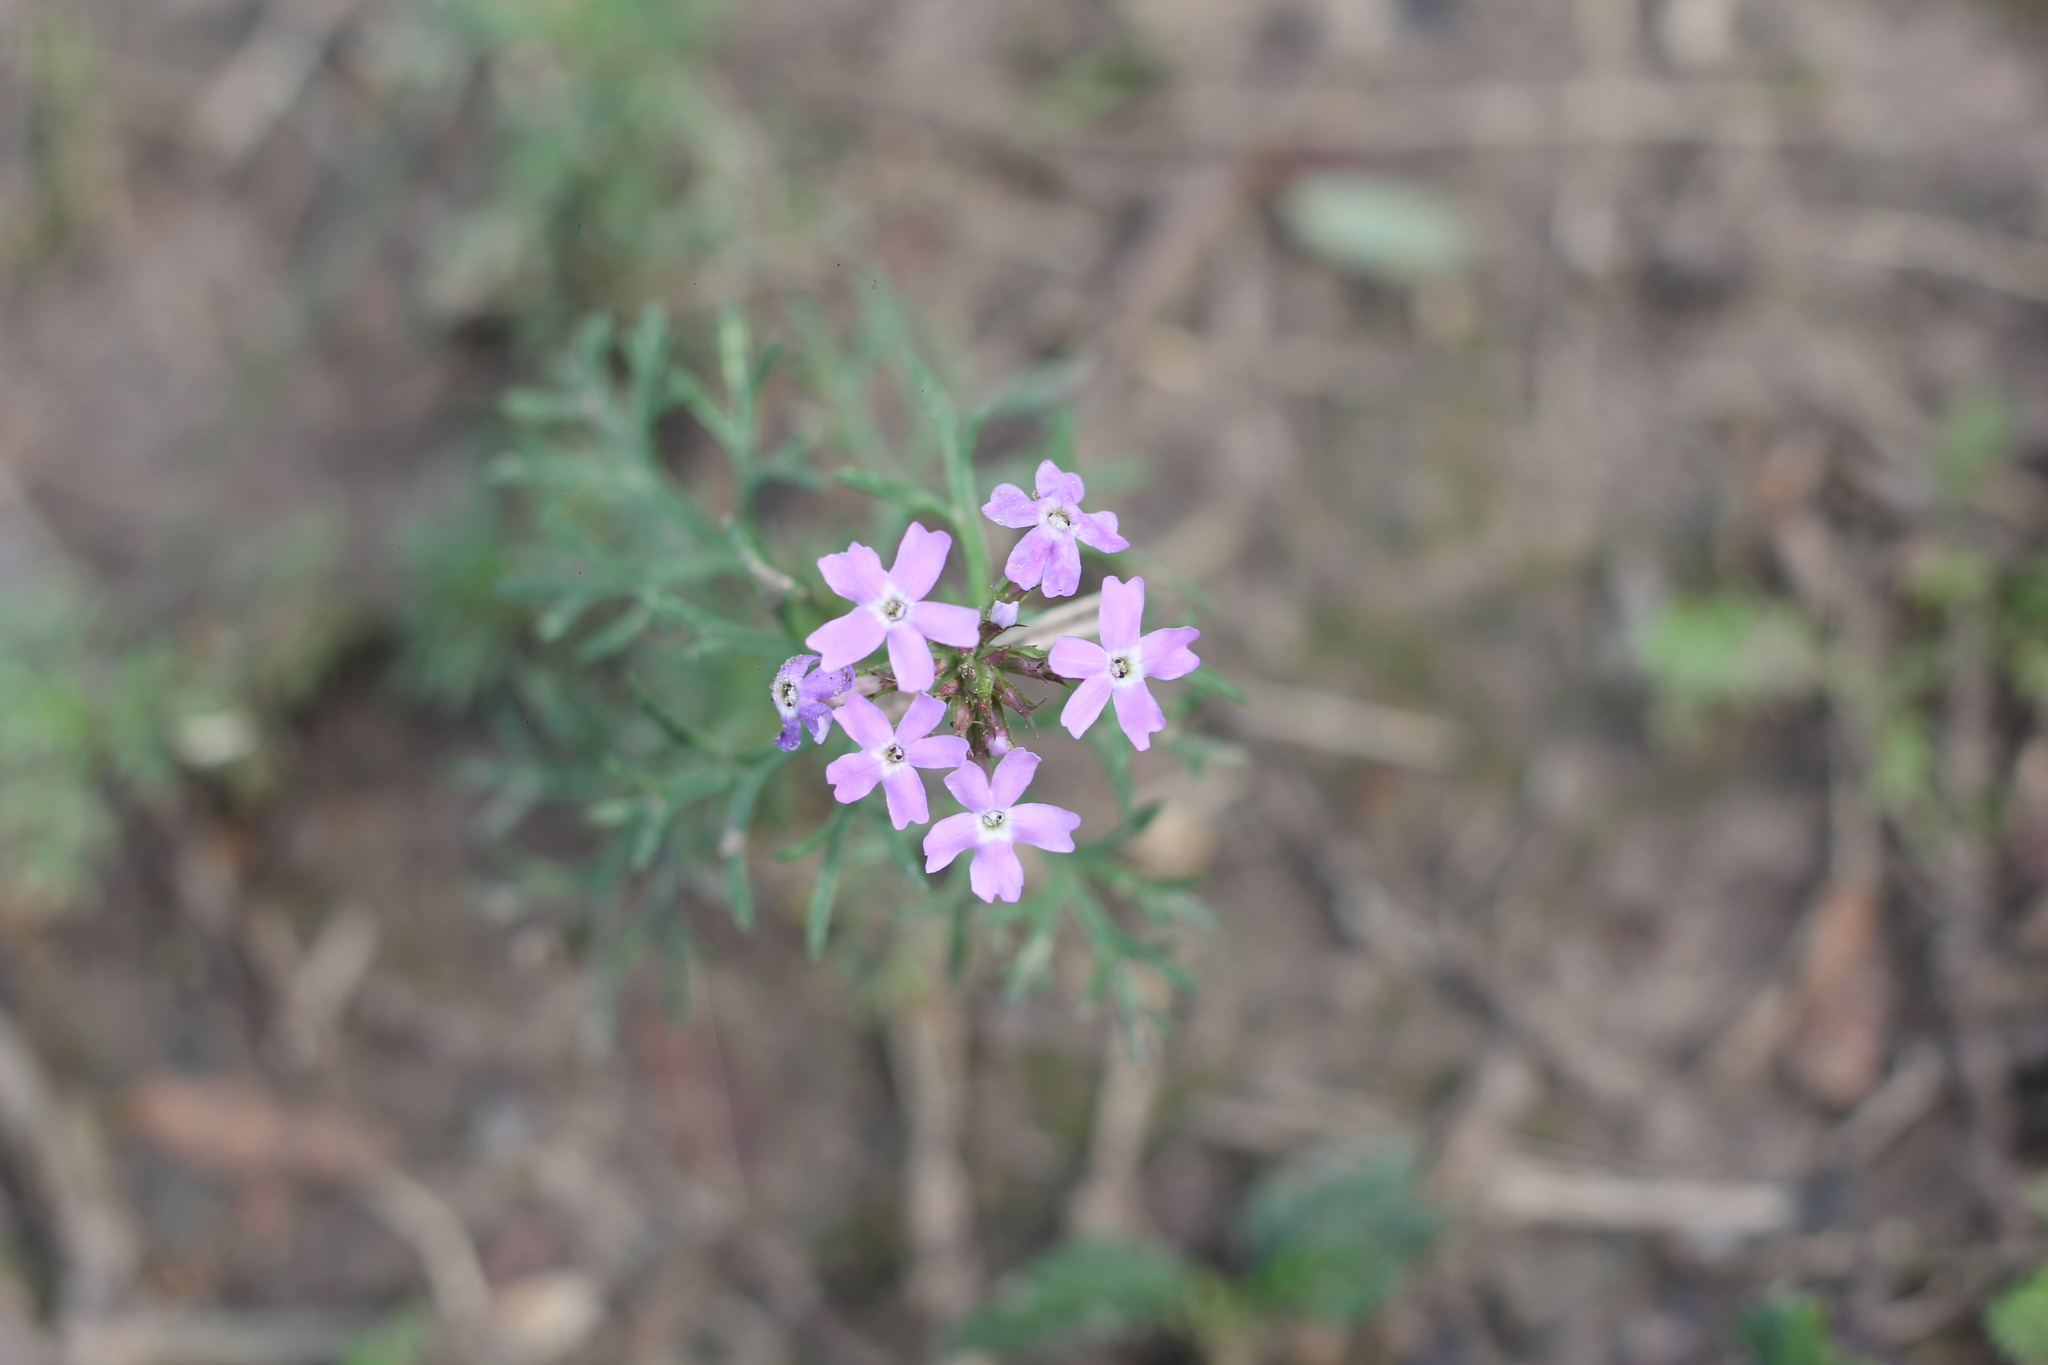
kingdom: Plantae
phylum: Tracheophyta
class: Magnoliopsida
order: Lamiales
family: Verbenaceae
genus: Verbena
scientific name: Verbena tenera
